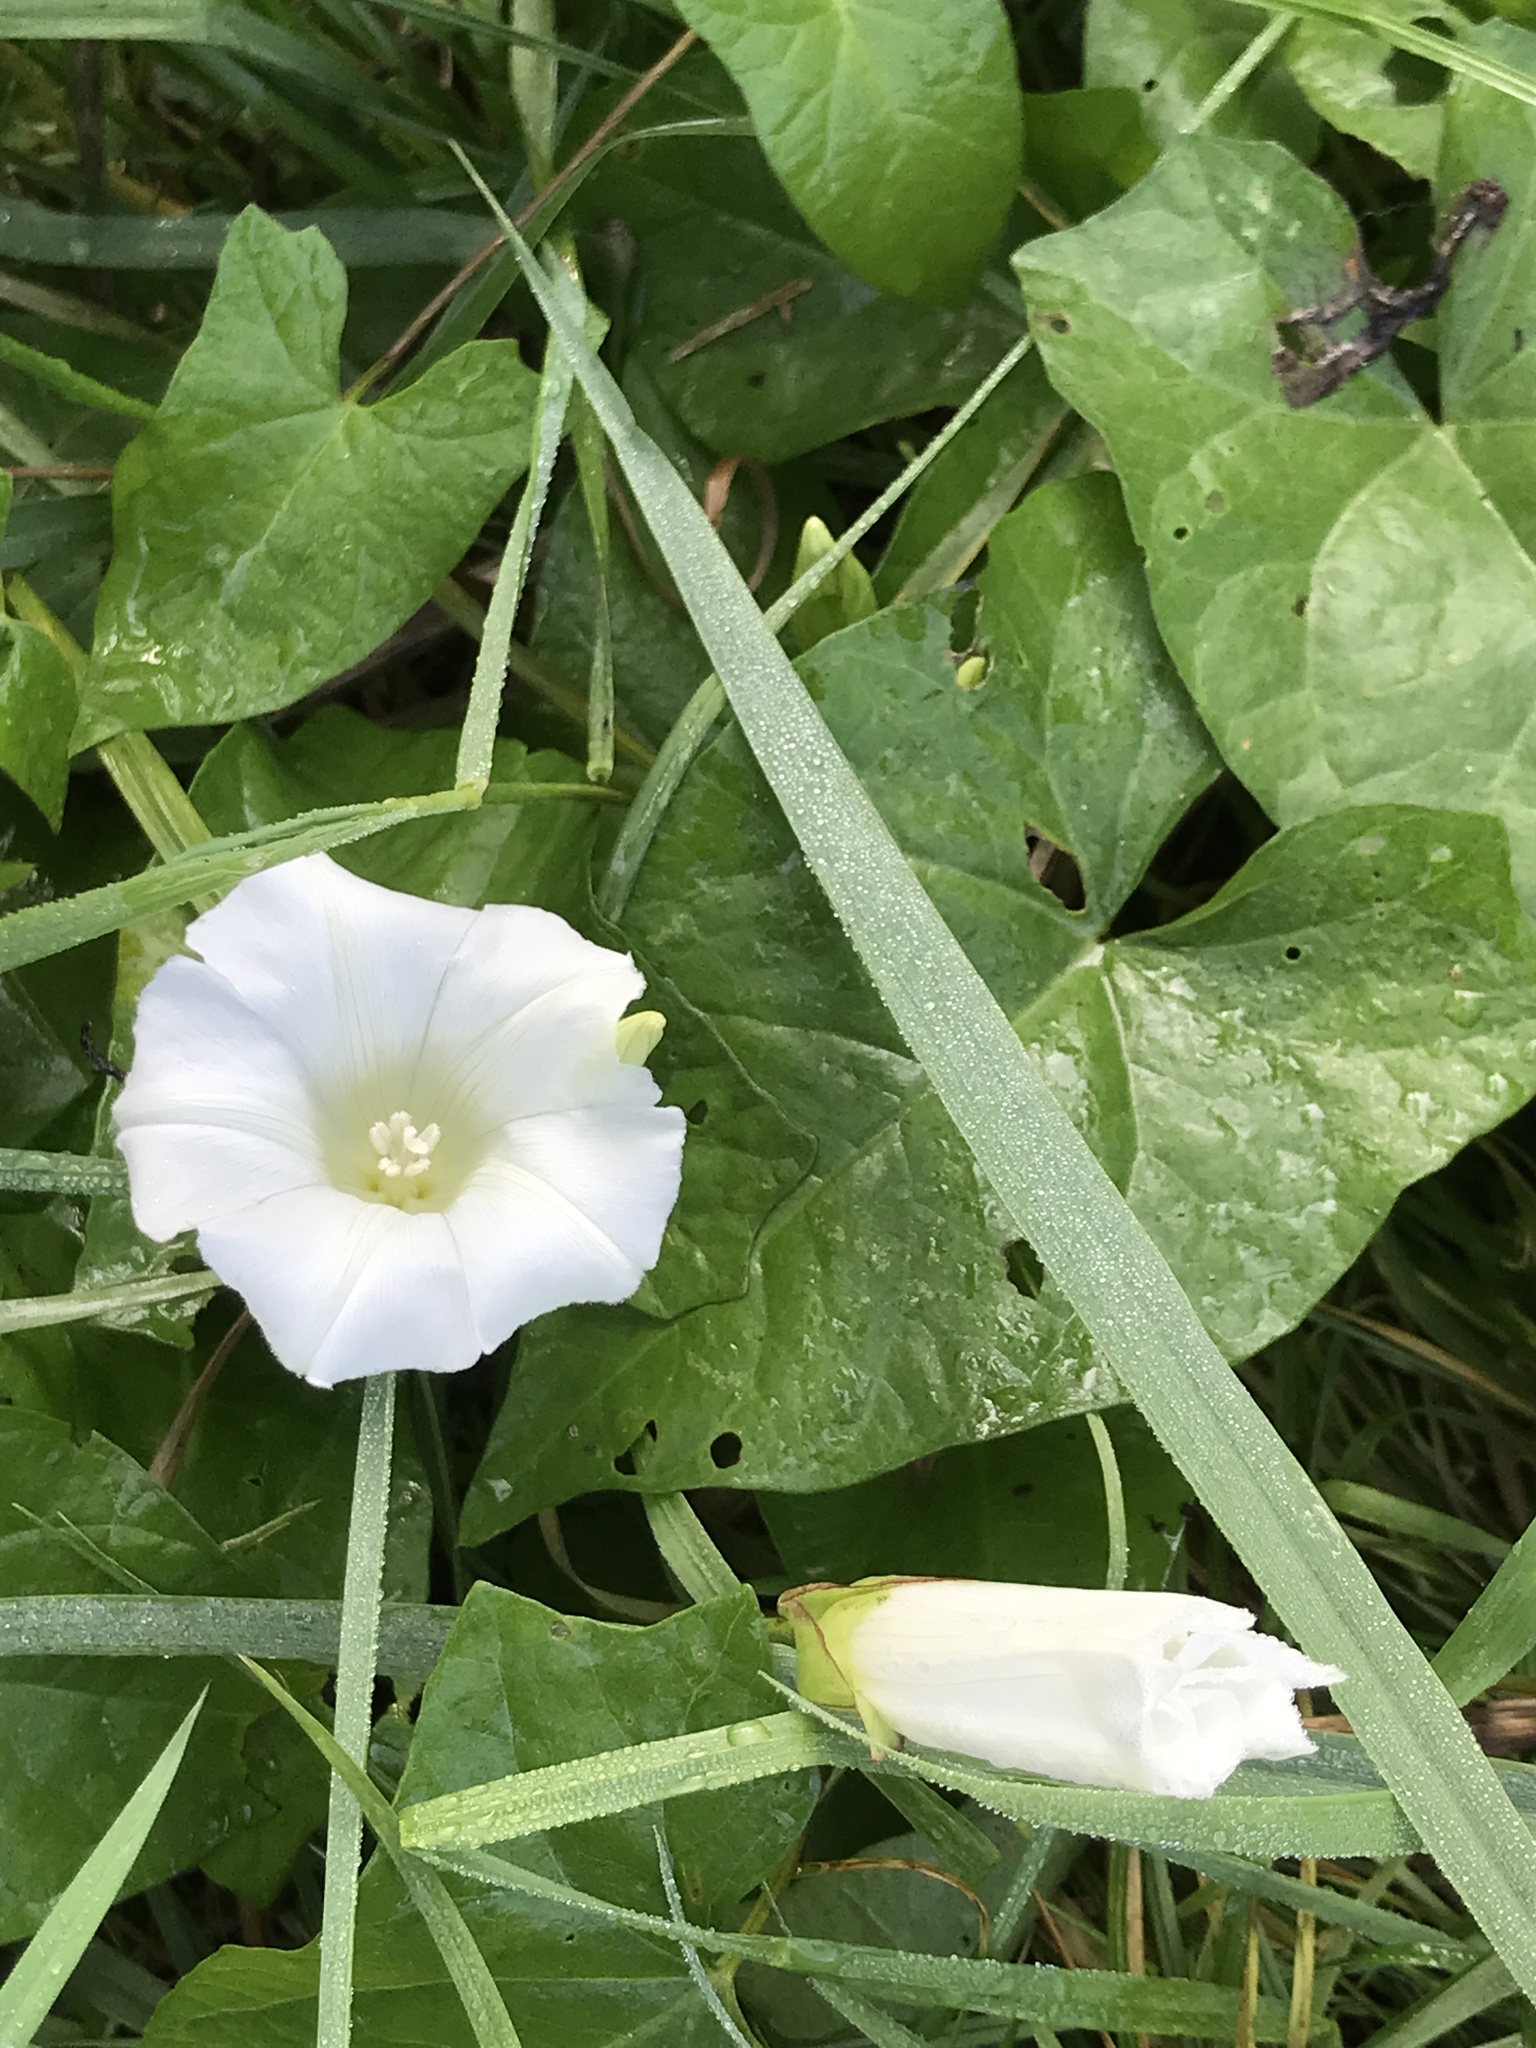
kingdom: Plantae
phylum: Tracheophyta
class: Magnoliopsida
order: Solanales
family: Convolvulaceae
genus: Calystegia
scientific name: Calystegia sepium
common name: Hedge bindweed
